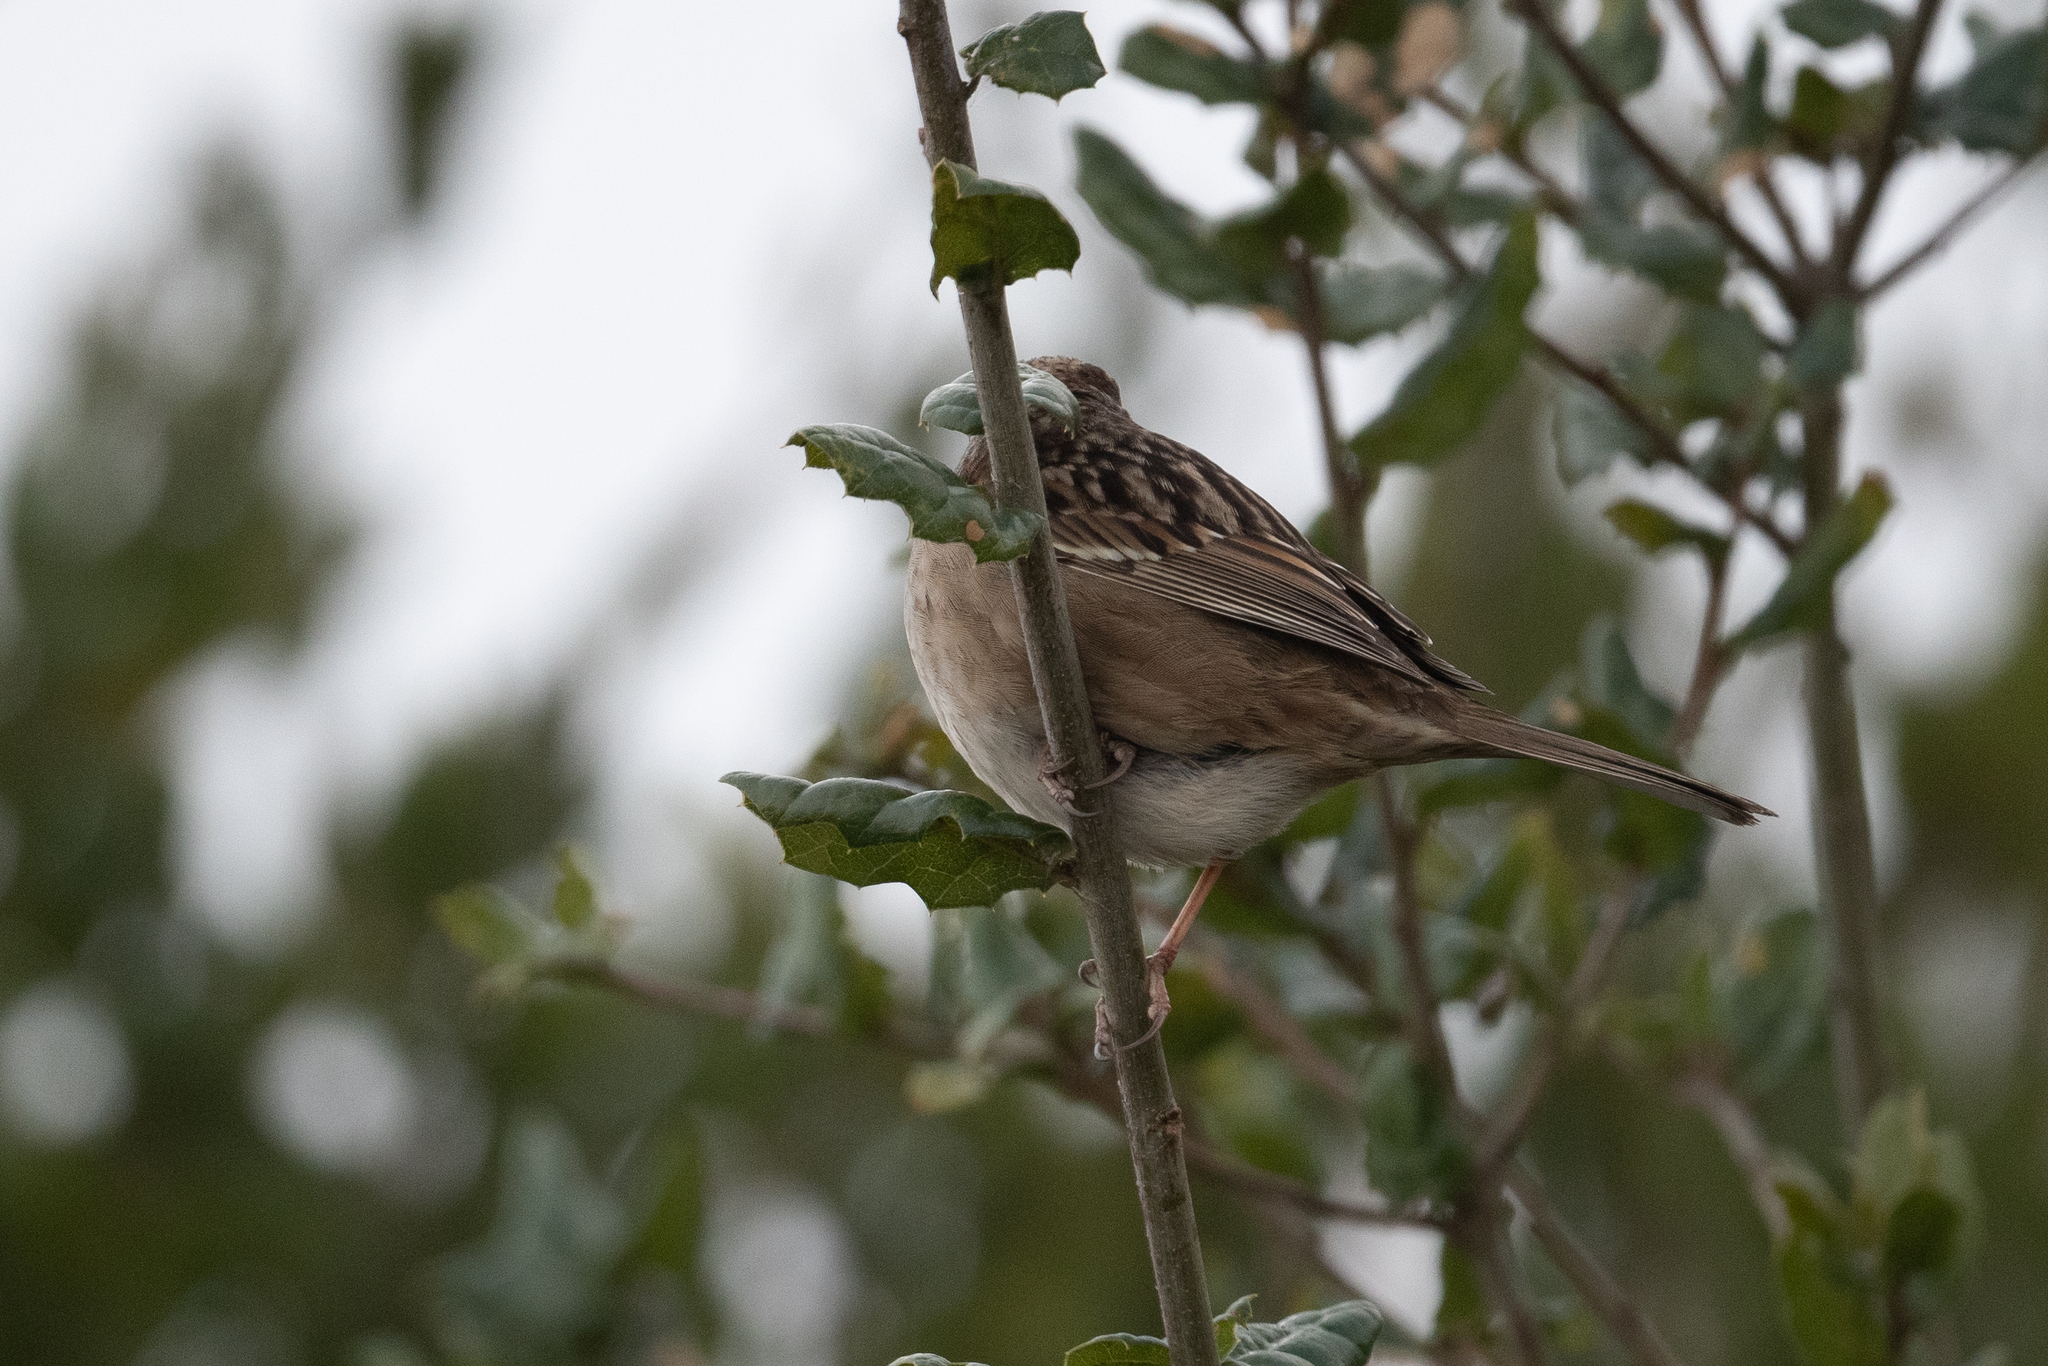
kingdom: Animalia
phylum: Chordata
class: Aves
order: Passeriformes
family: Passerellidae
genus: Zonotrichia
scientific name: Zonotrichia atricapilla
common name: Golden-crowned sparrow
